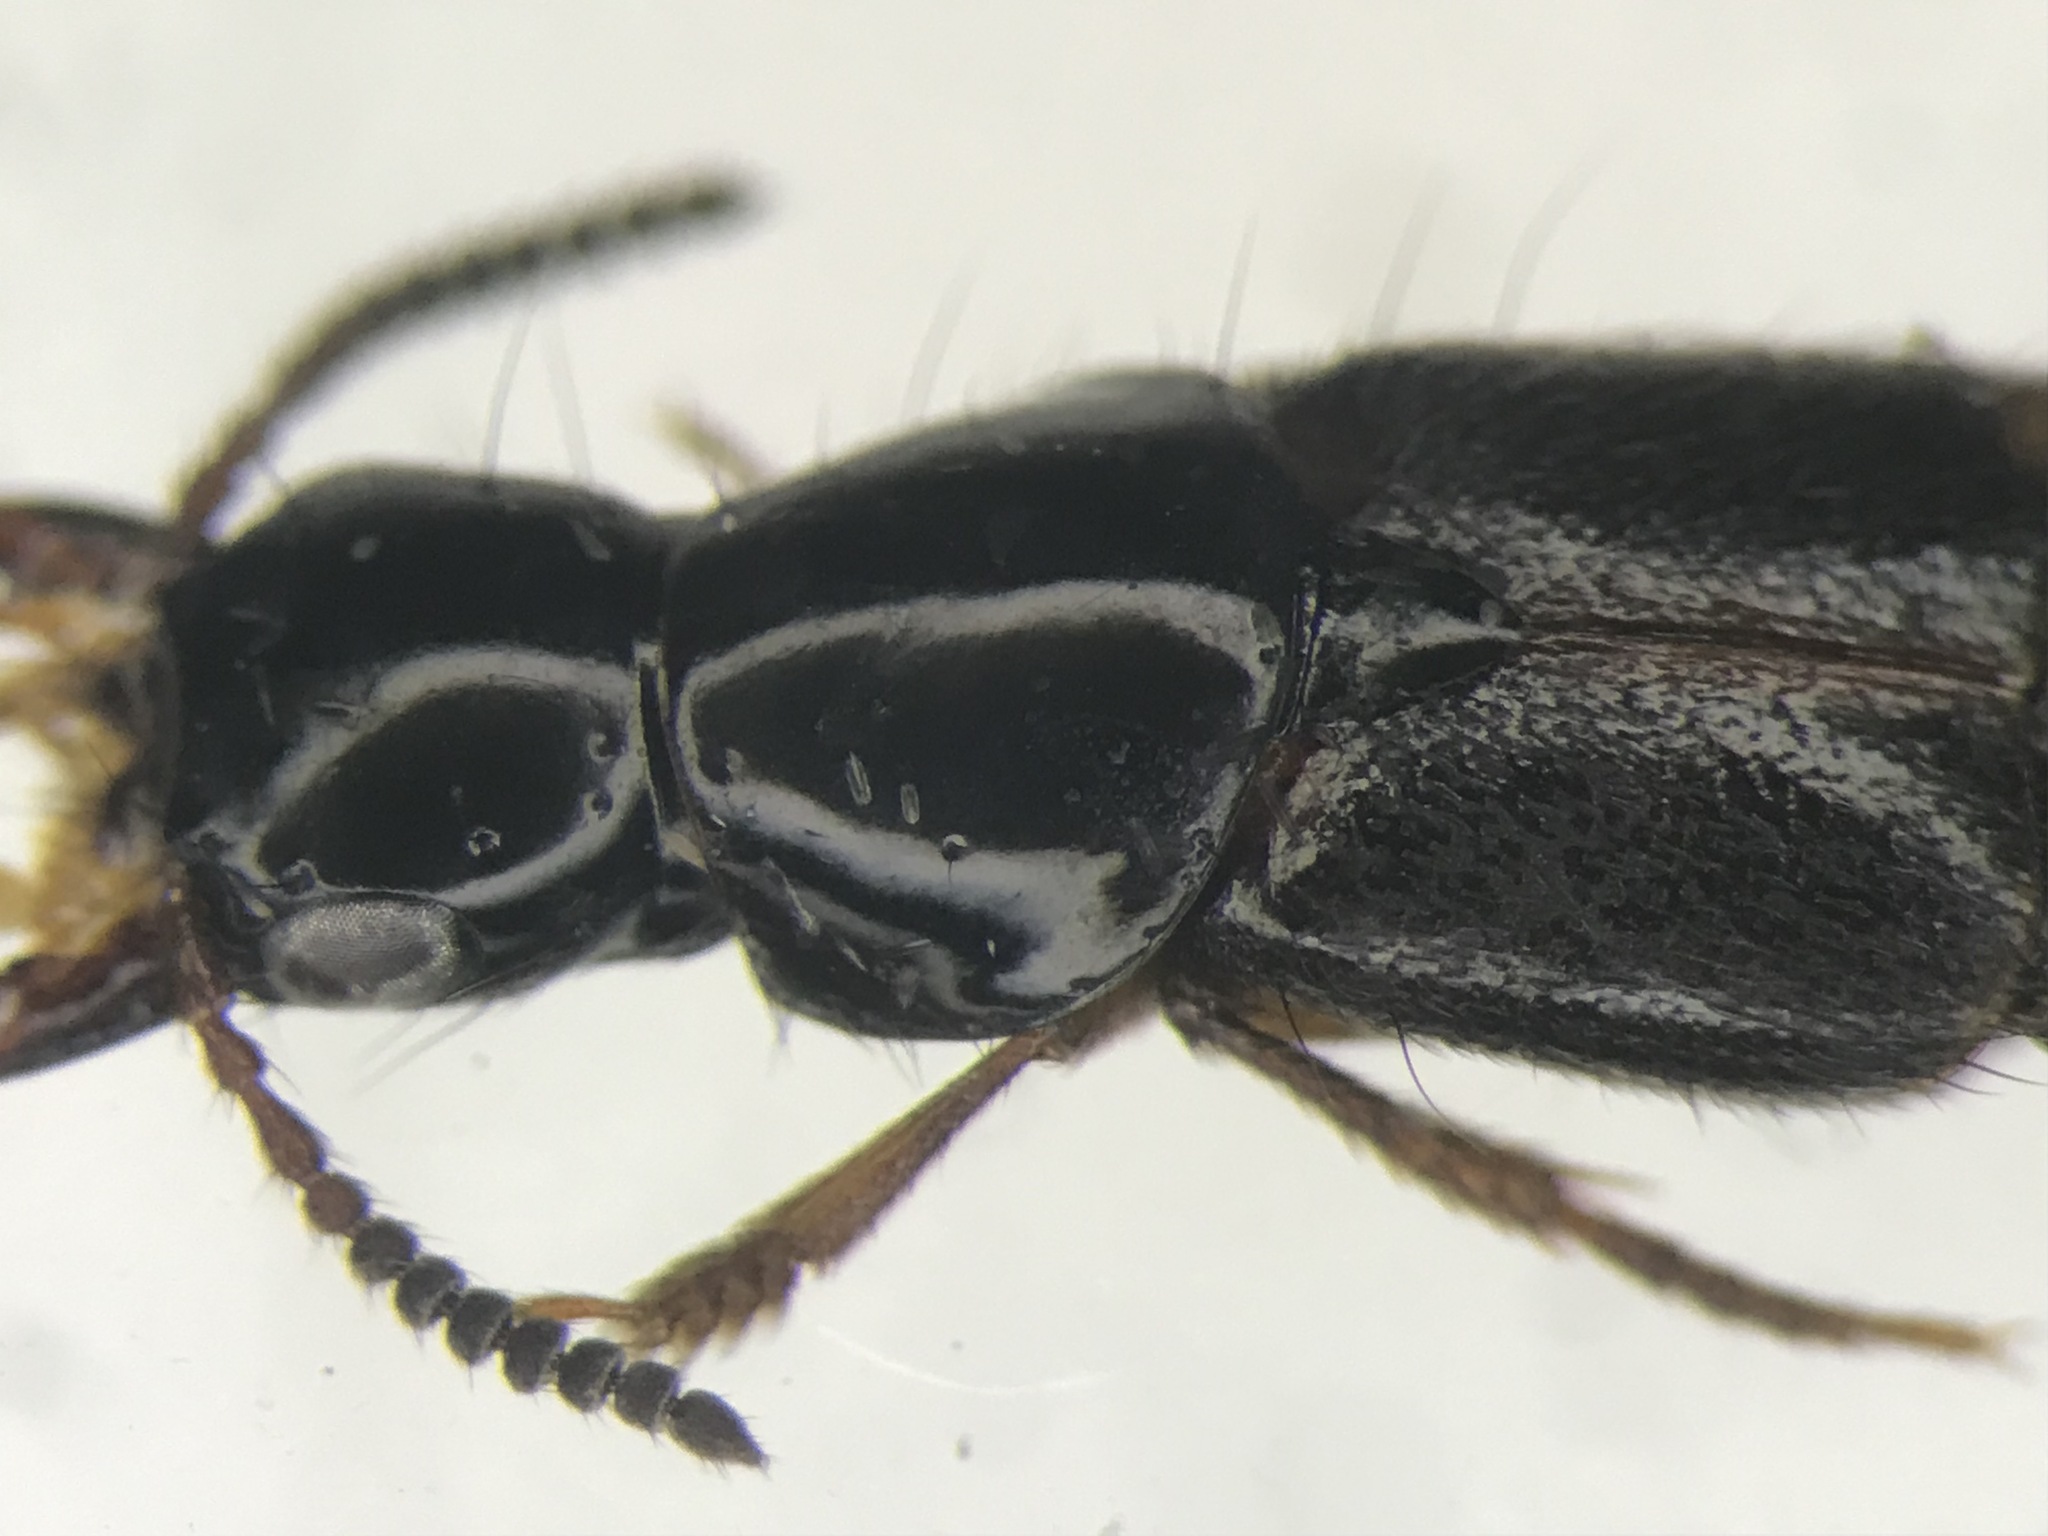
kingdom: Animalia
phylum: Arthropoda
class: Insecta
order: Coleoptera
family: Staphylinidae
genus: Quedius
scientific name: Quedius cruentus
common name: Rove beetle
